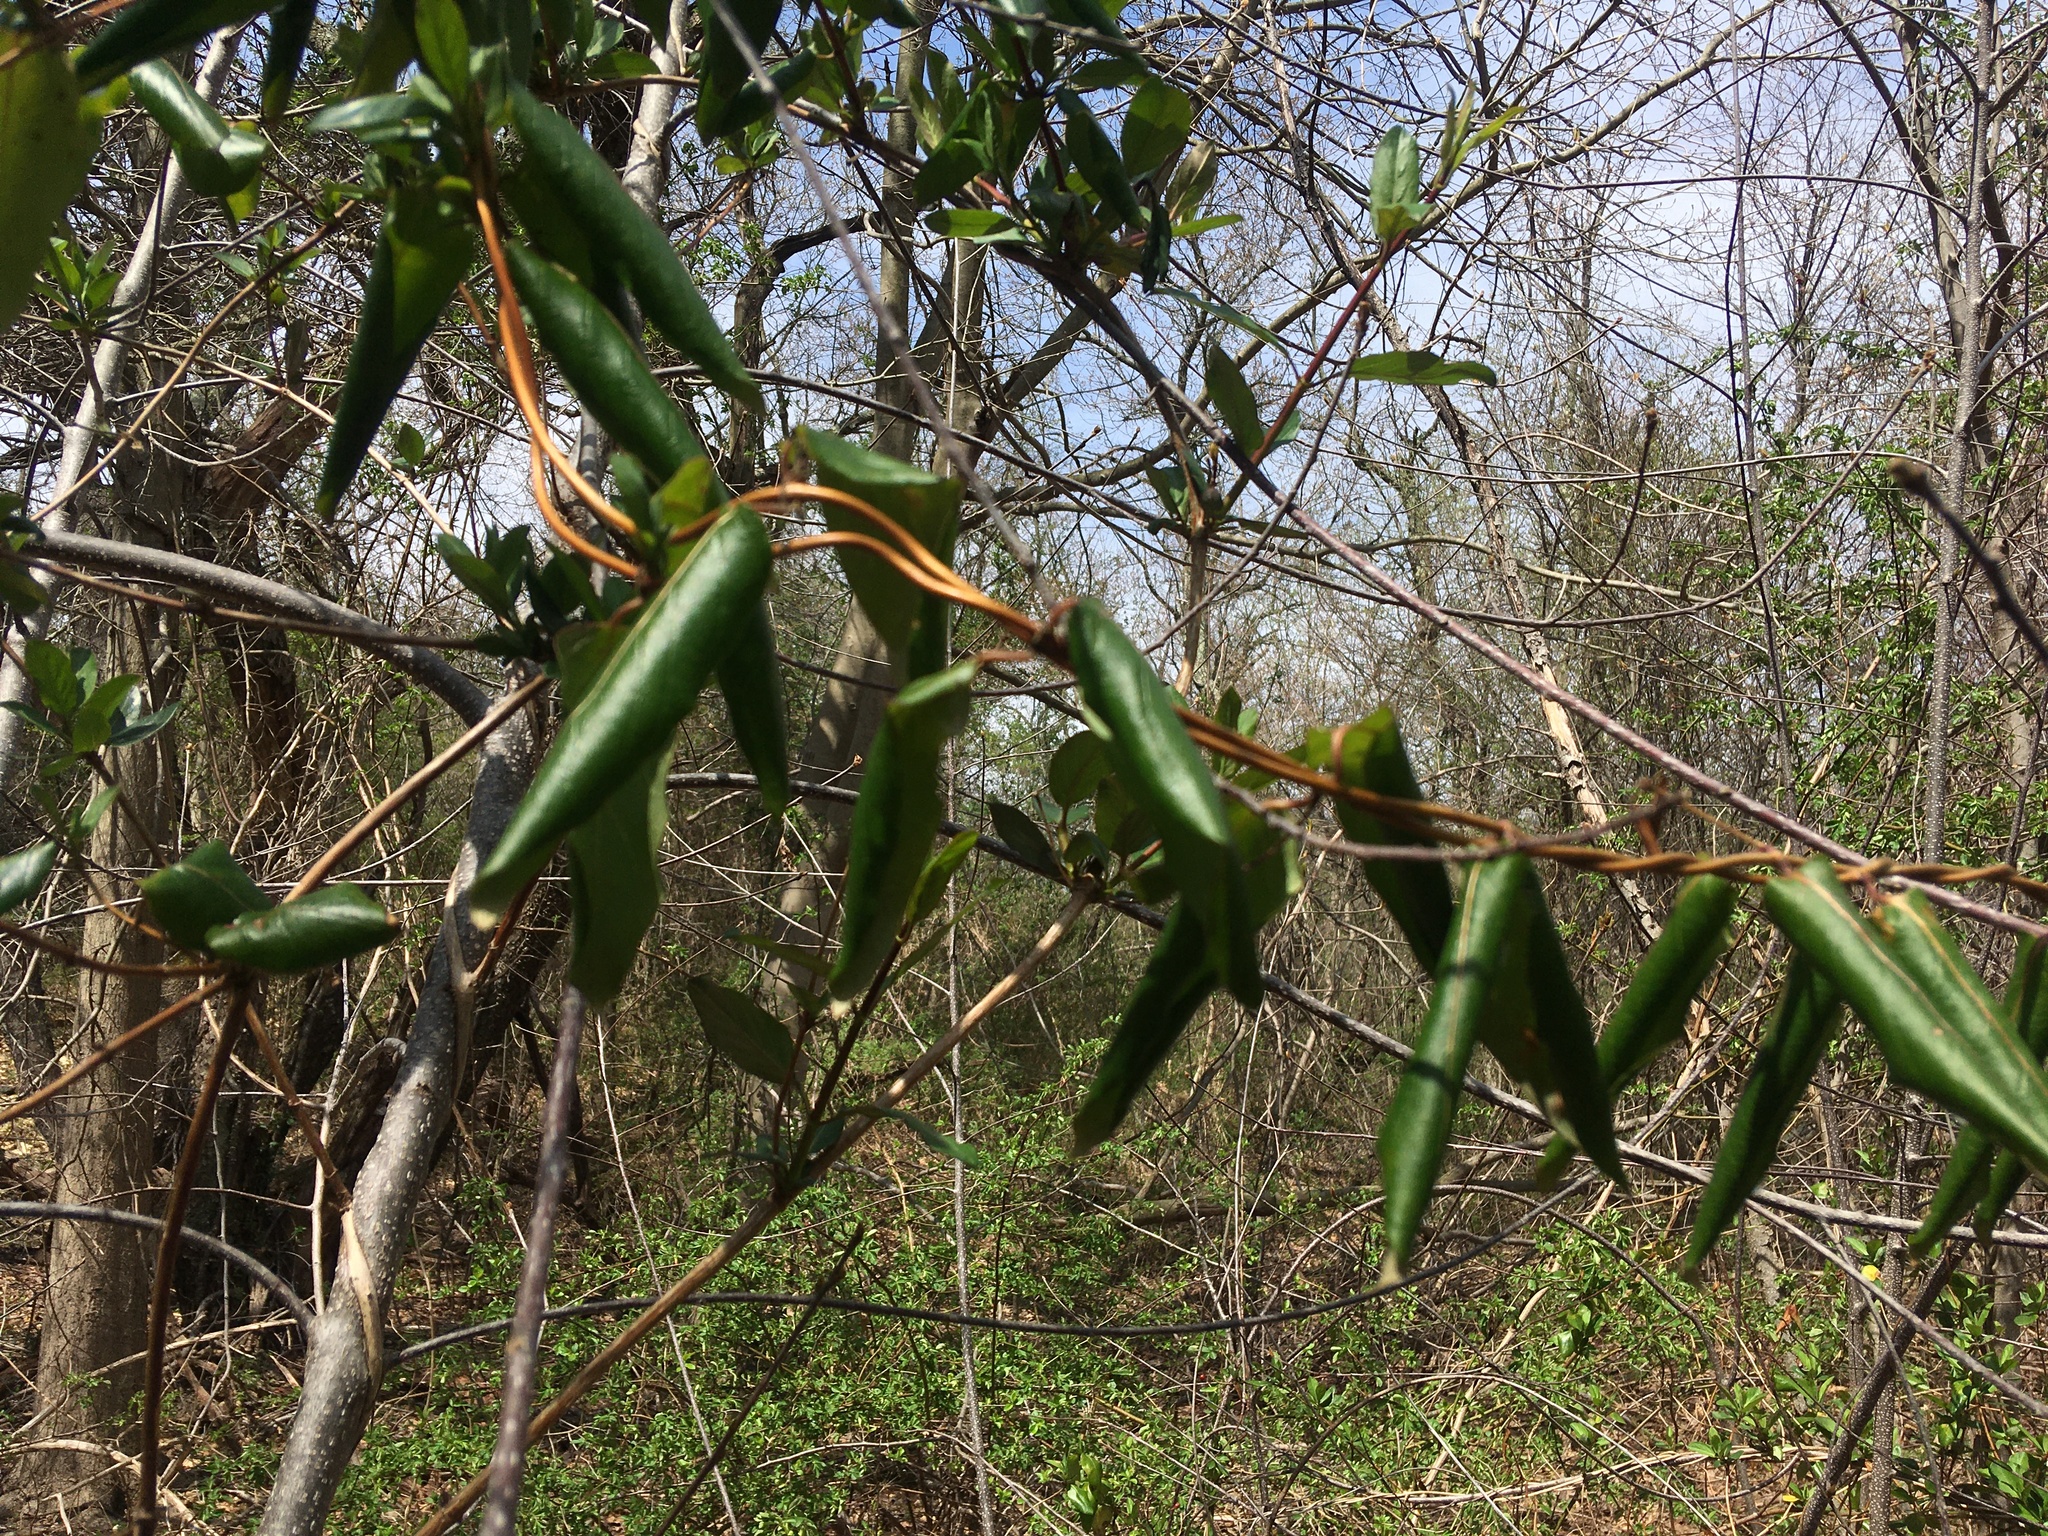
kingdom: Plantae
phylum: Tracheophyta
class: Magnoliopsida
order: Dipsacales
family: Caprifoliaceae
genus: Lonicera
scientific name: Lonicera japonica
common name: Japanese honeysuckle
